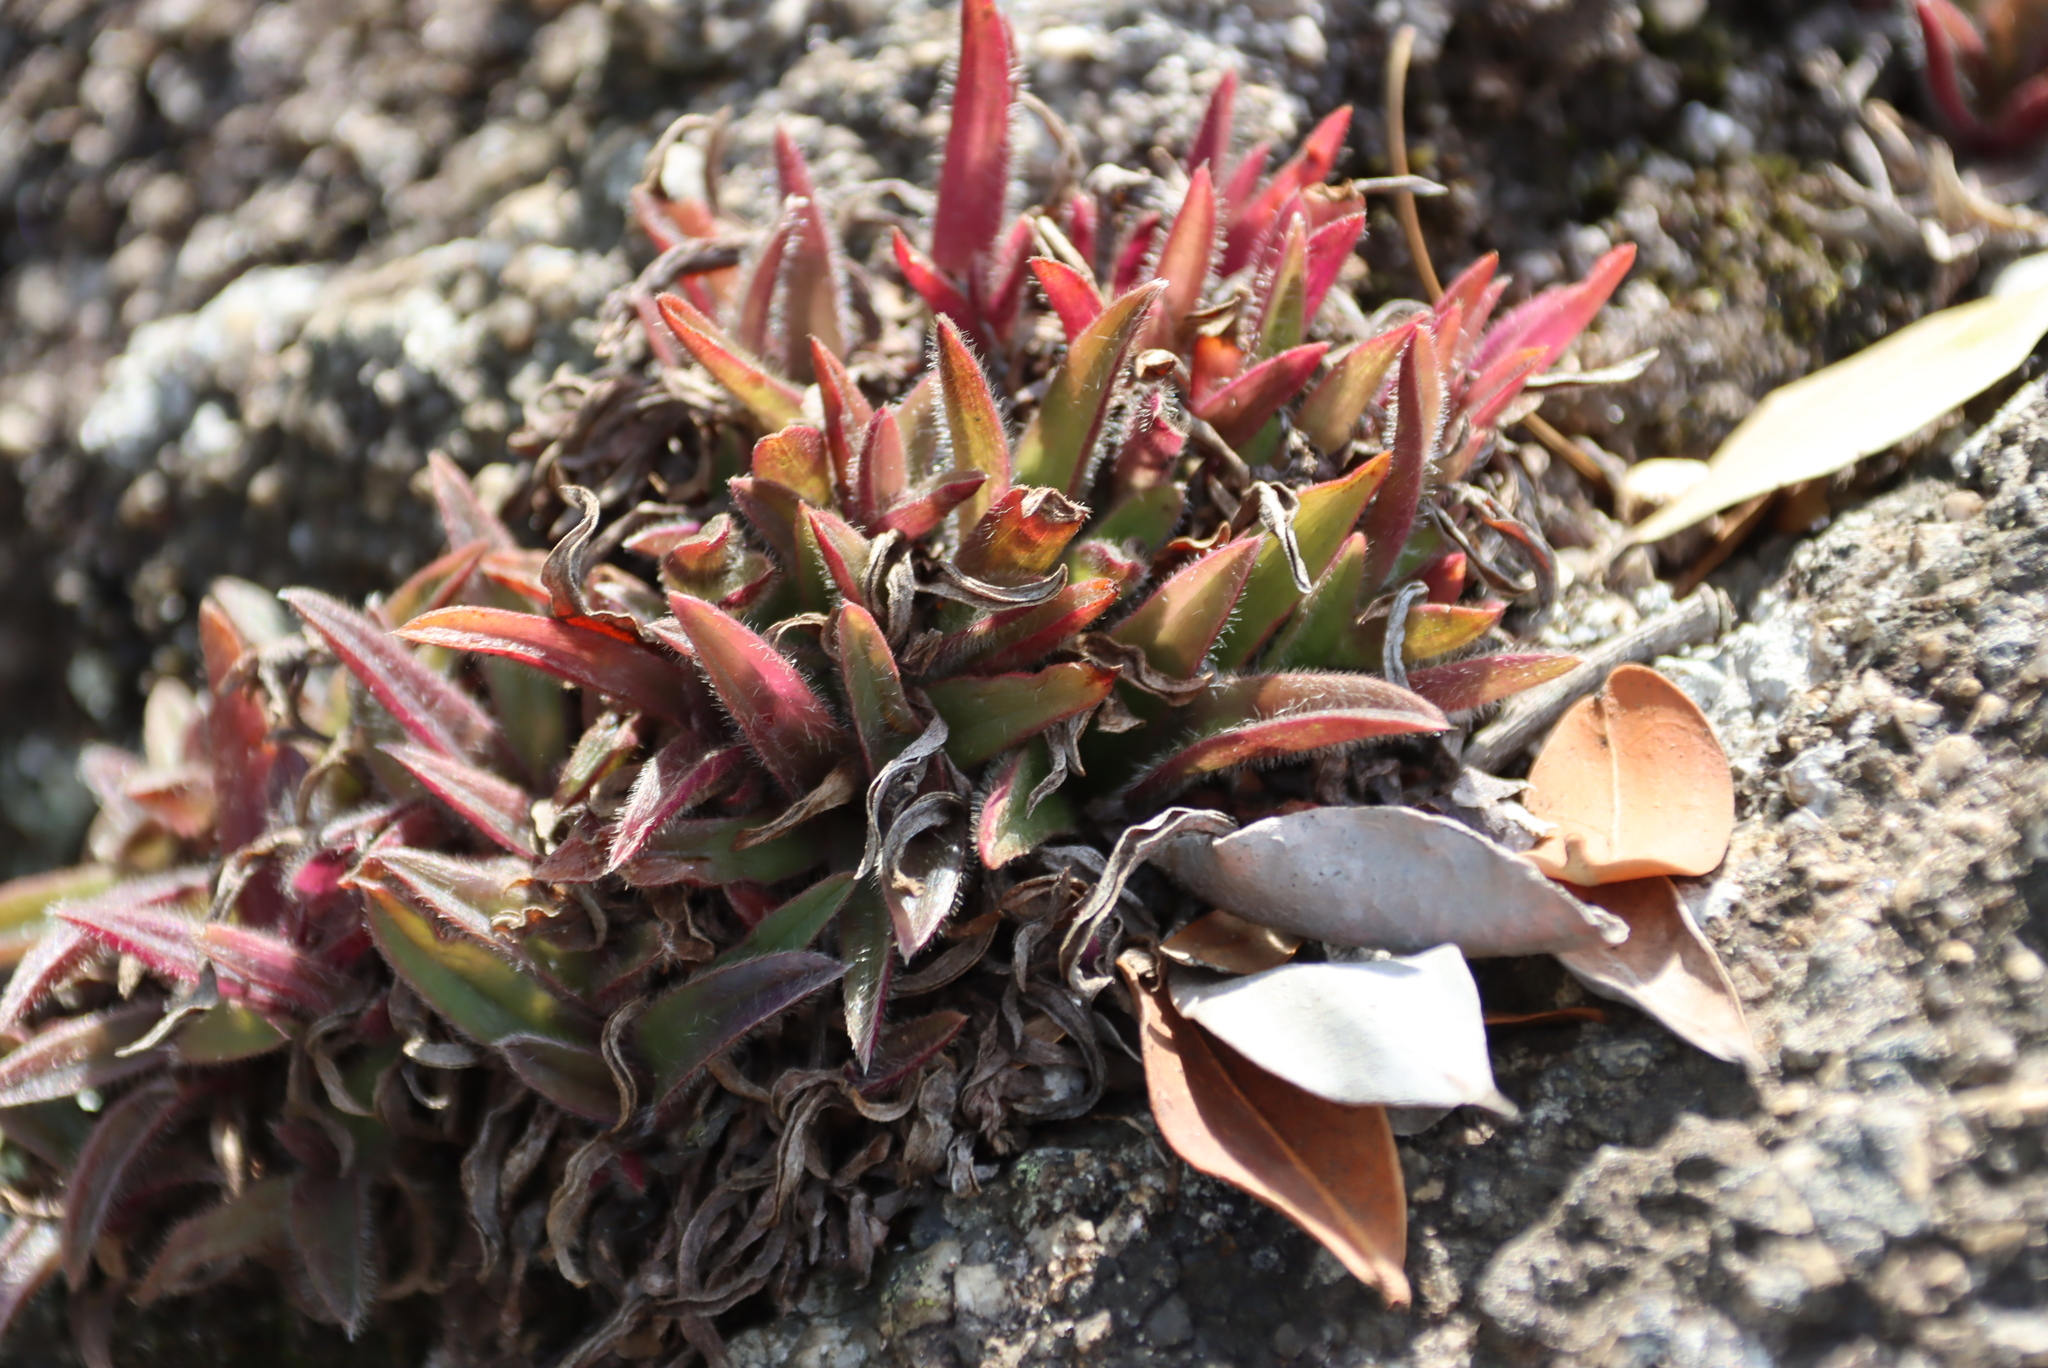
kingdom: Plantae
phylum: Tracheophyta
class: Liliopsida
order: Commelinales
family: Commelinaceae
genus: Cyanotis
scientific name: Cyanotis lapidosa
